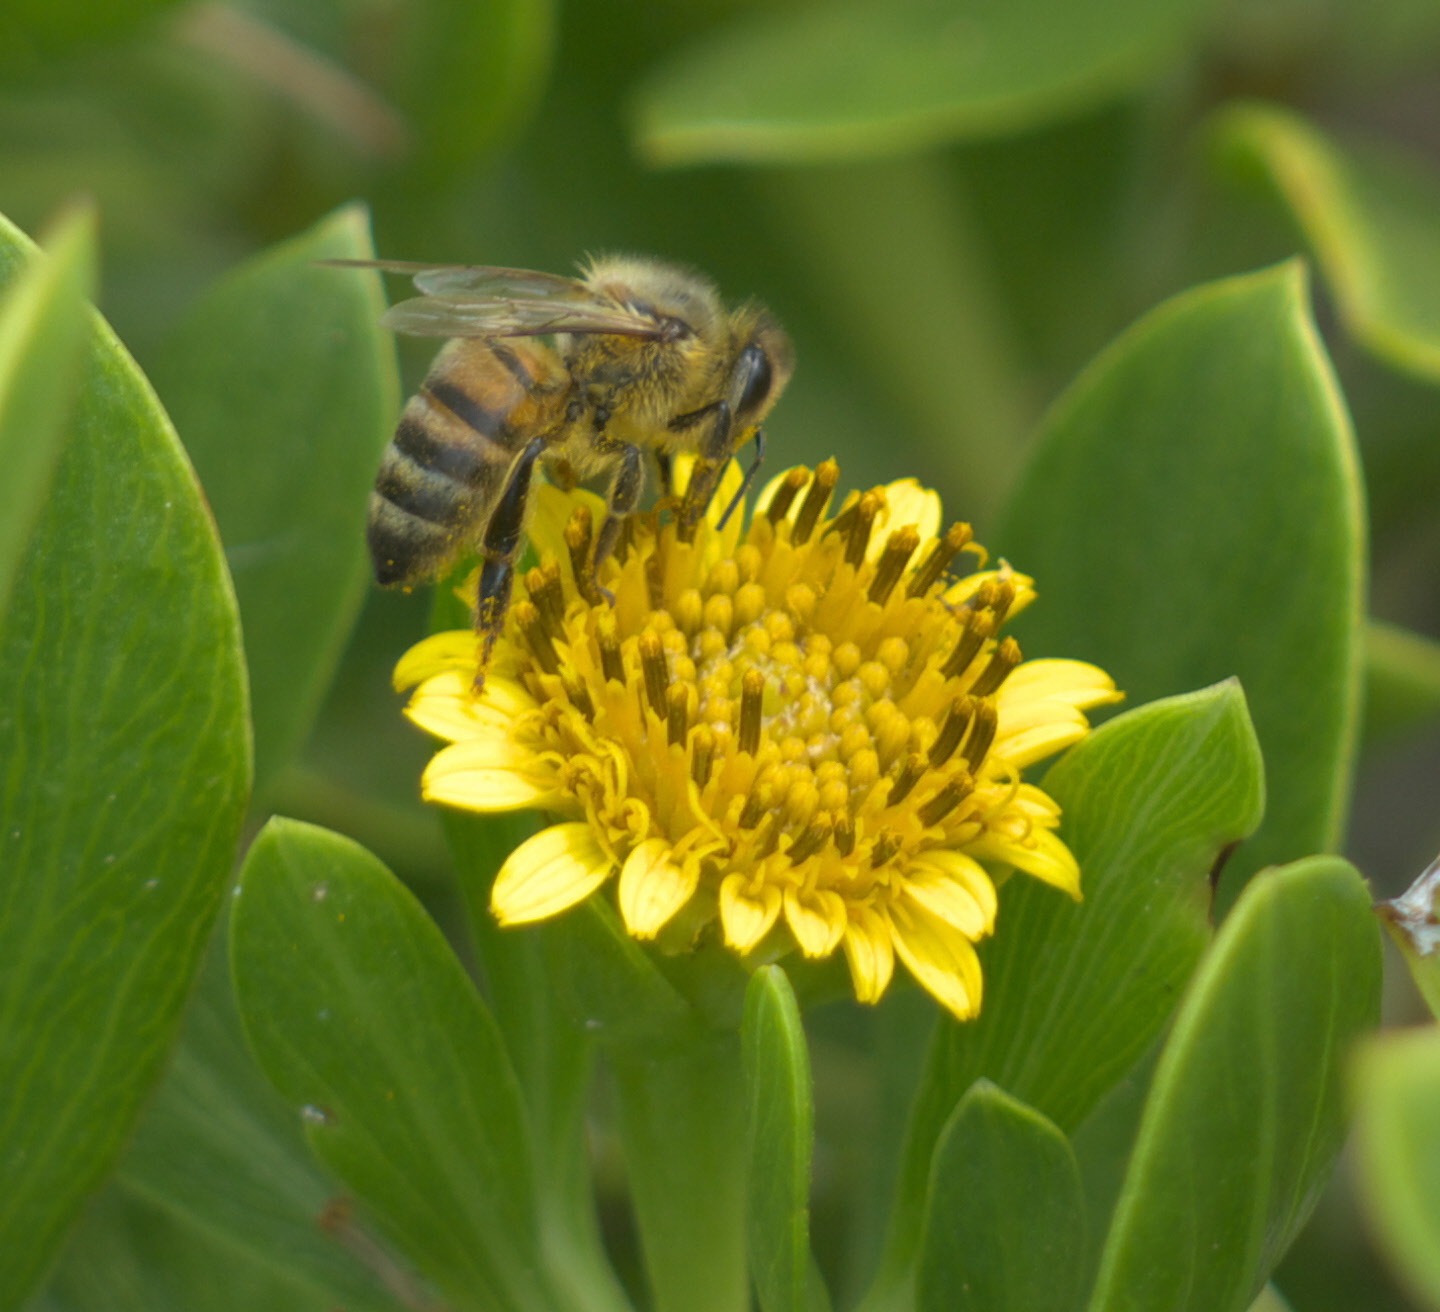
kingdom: Animalia
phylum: Arthropoda
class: Insecta
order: Hymenoptera
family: Apidae
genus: Apis
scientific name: Apis mellifera
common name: Honey bee
